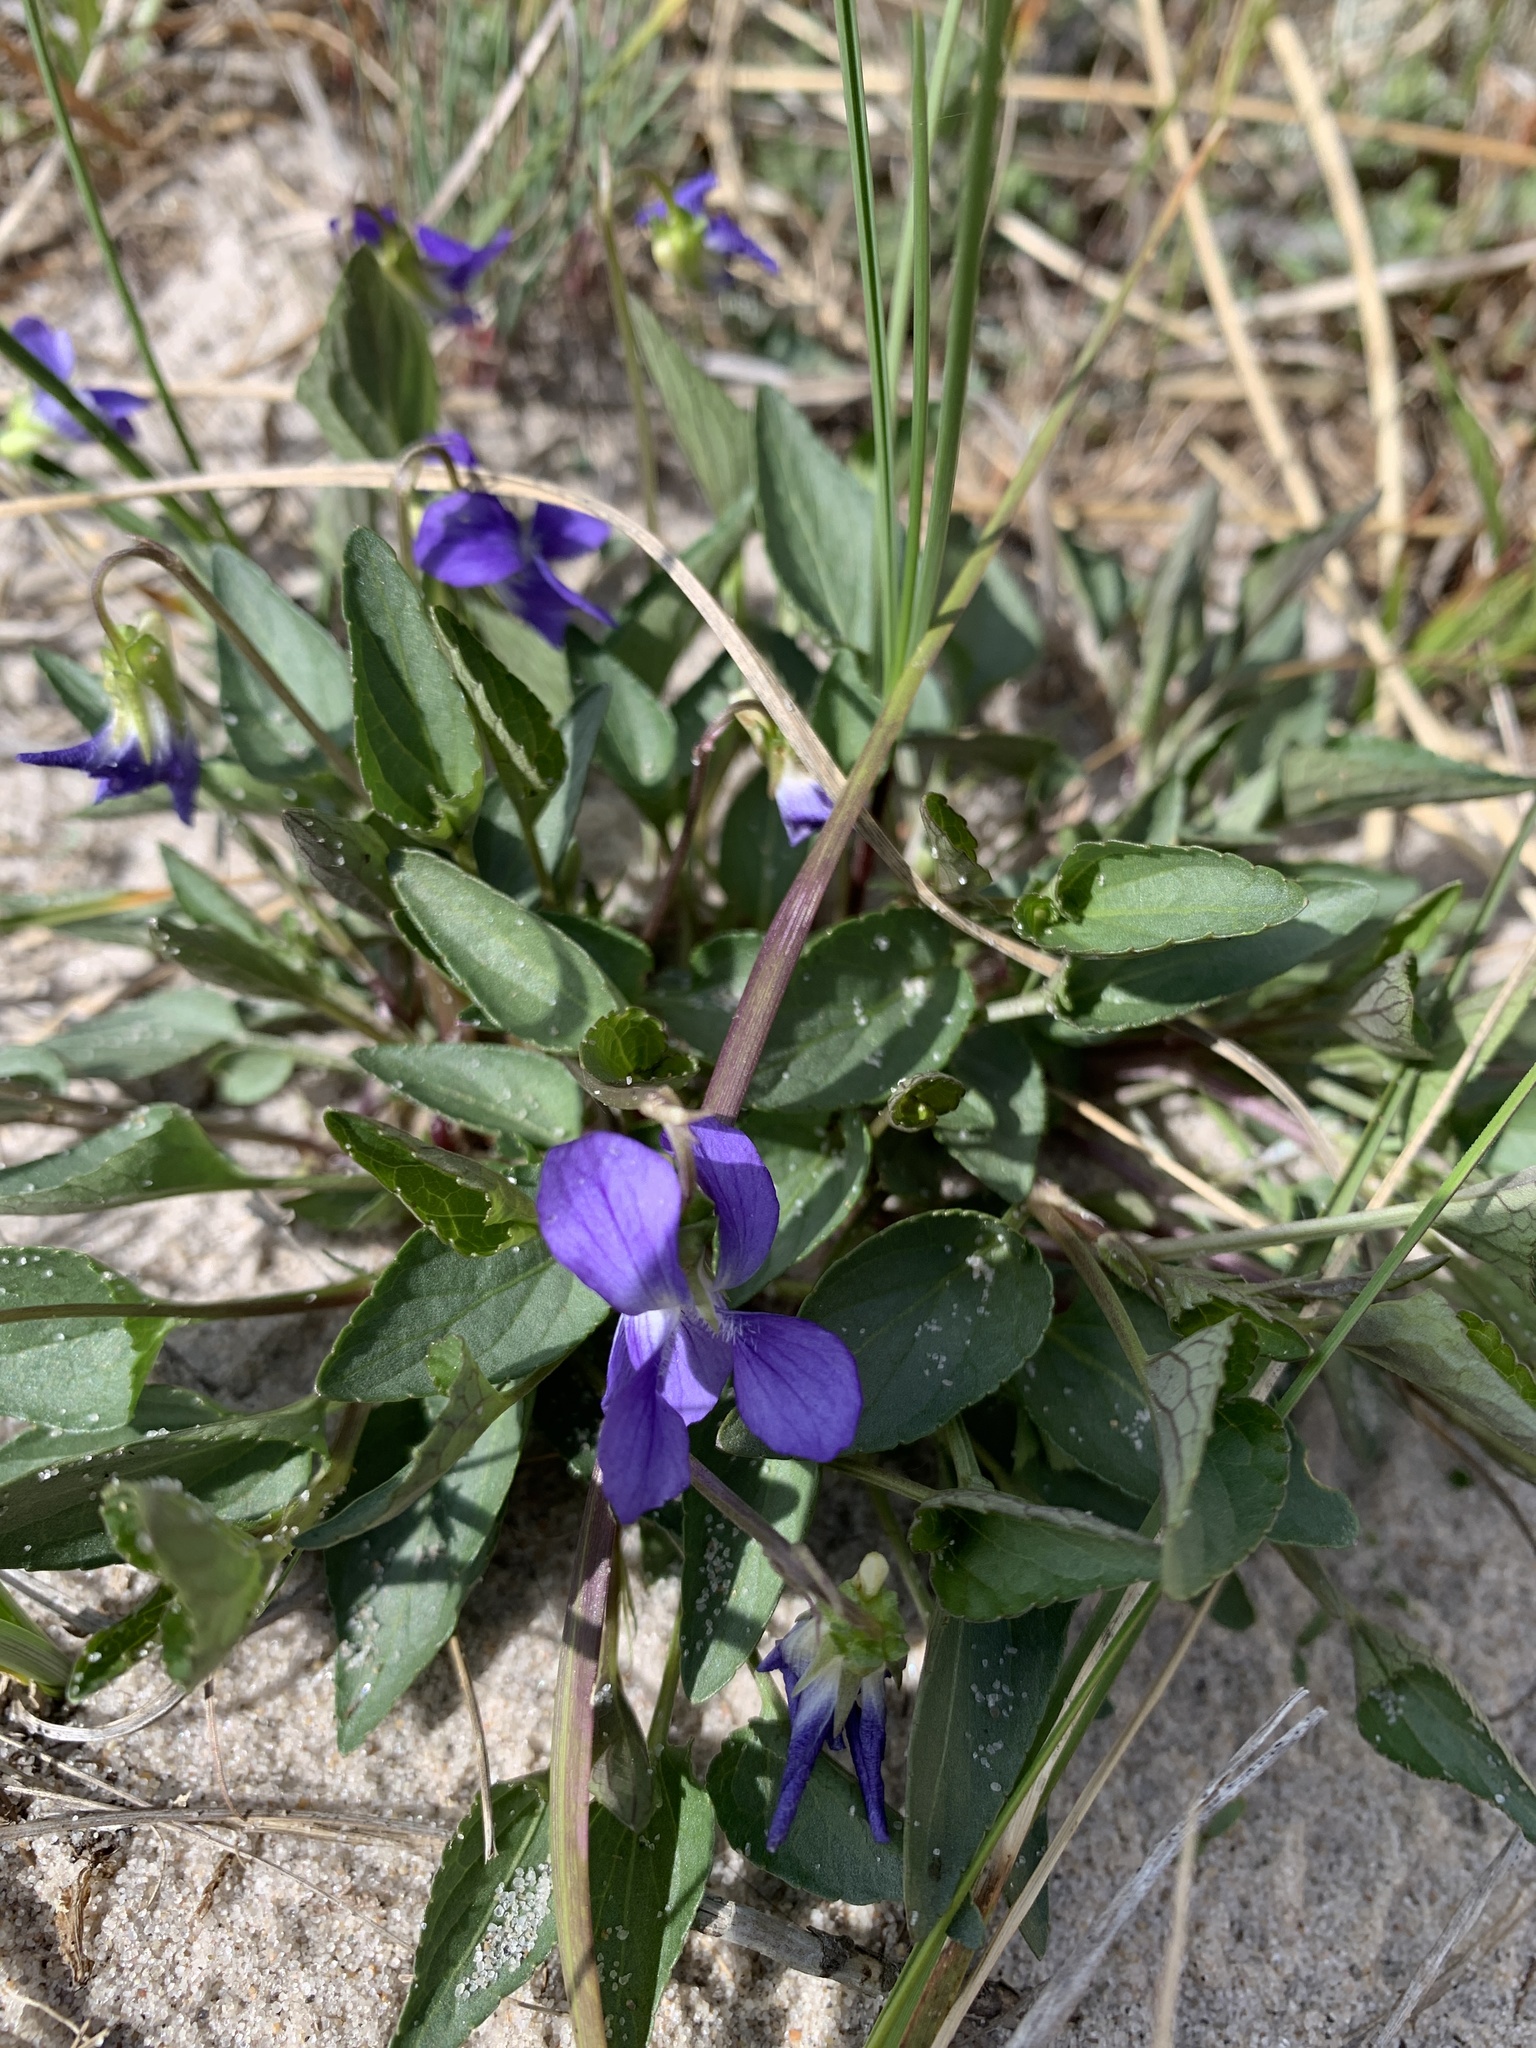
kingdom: Plantae
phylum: Tracheophyta
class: Magnoliopsida
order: Malpighiales
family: Violaceae
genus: Viola
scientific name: Viola canina
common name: Heath dog-violet
